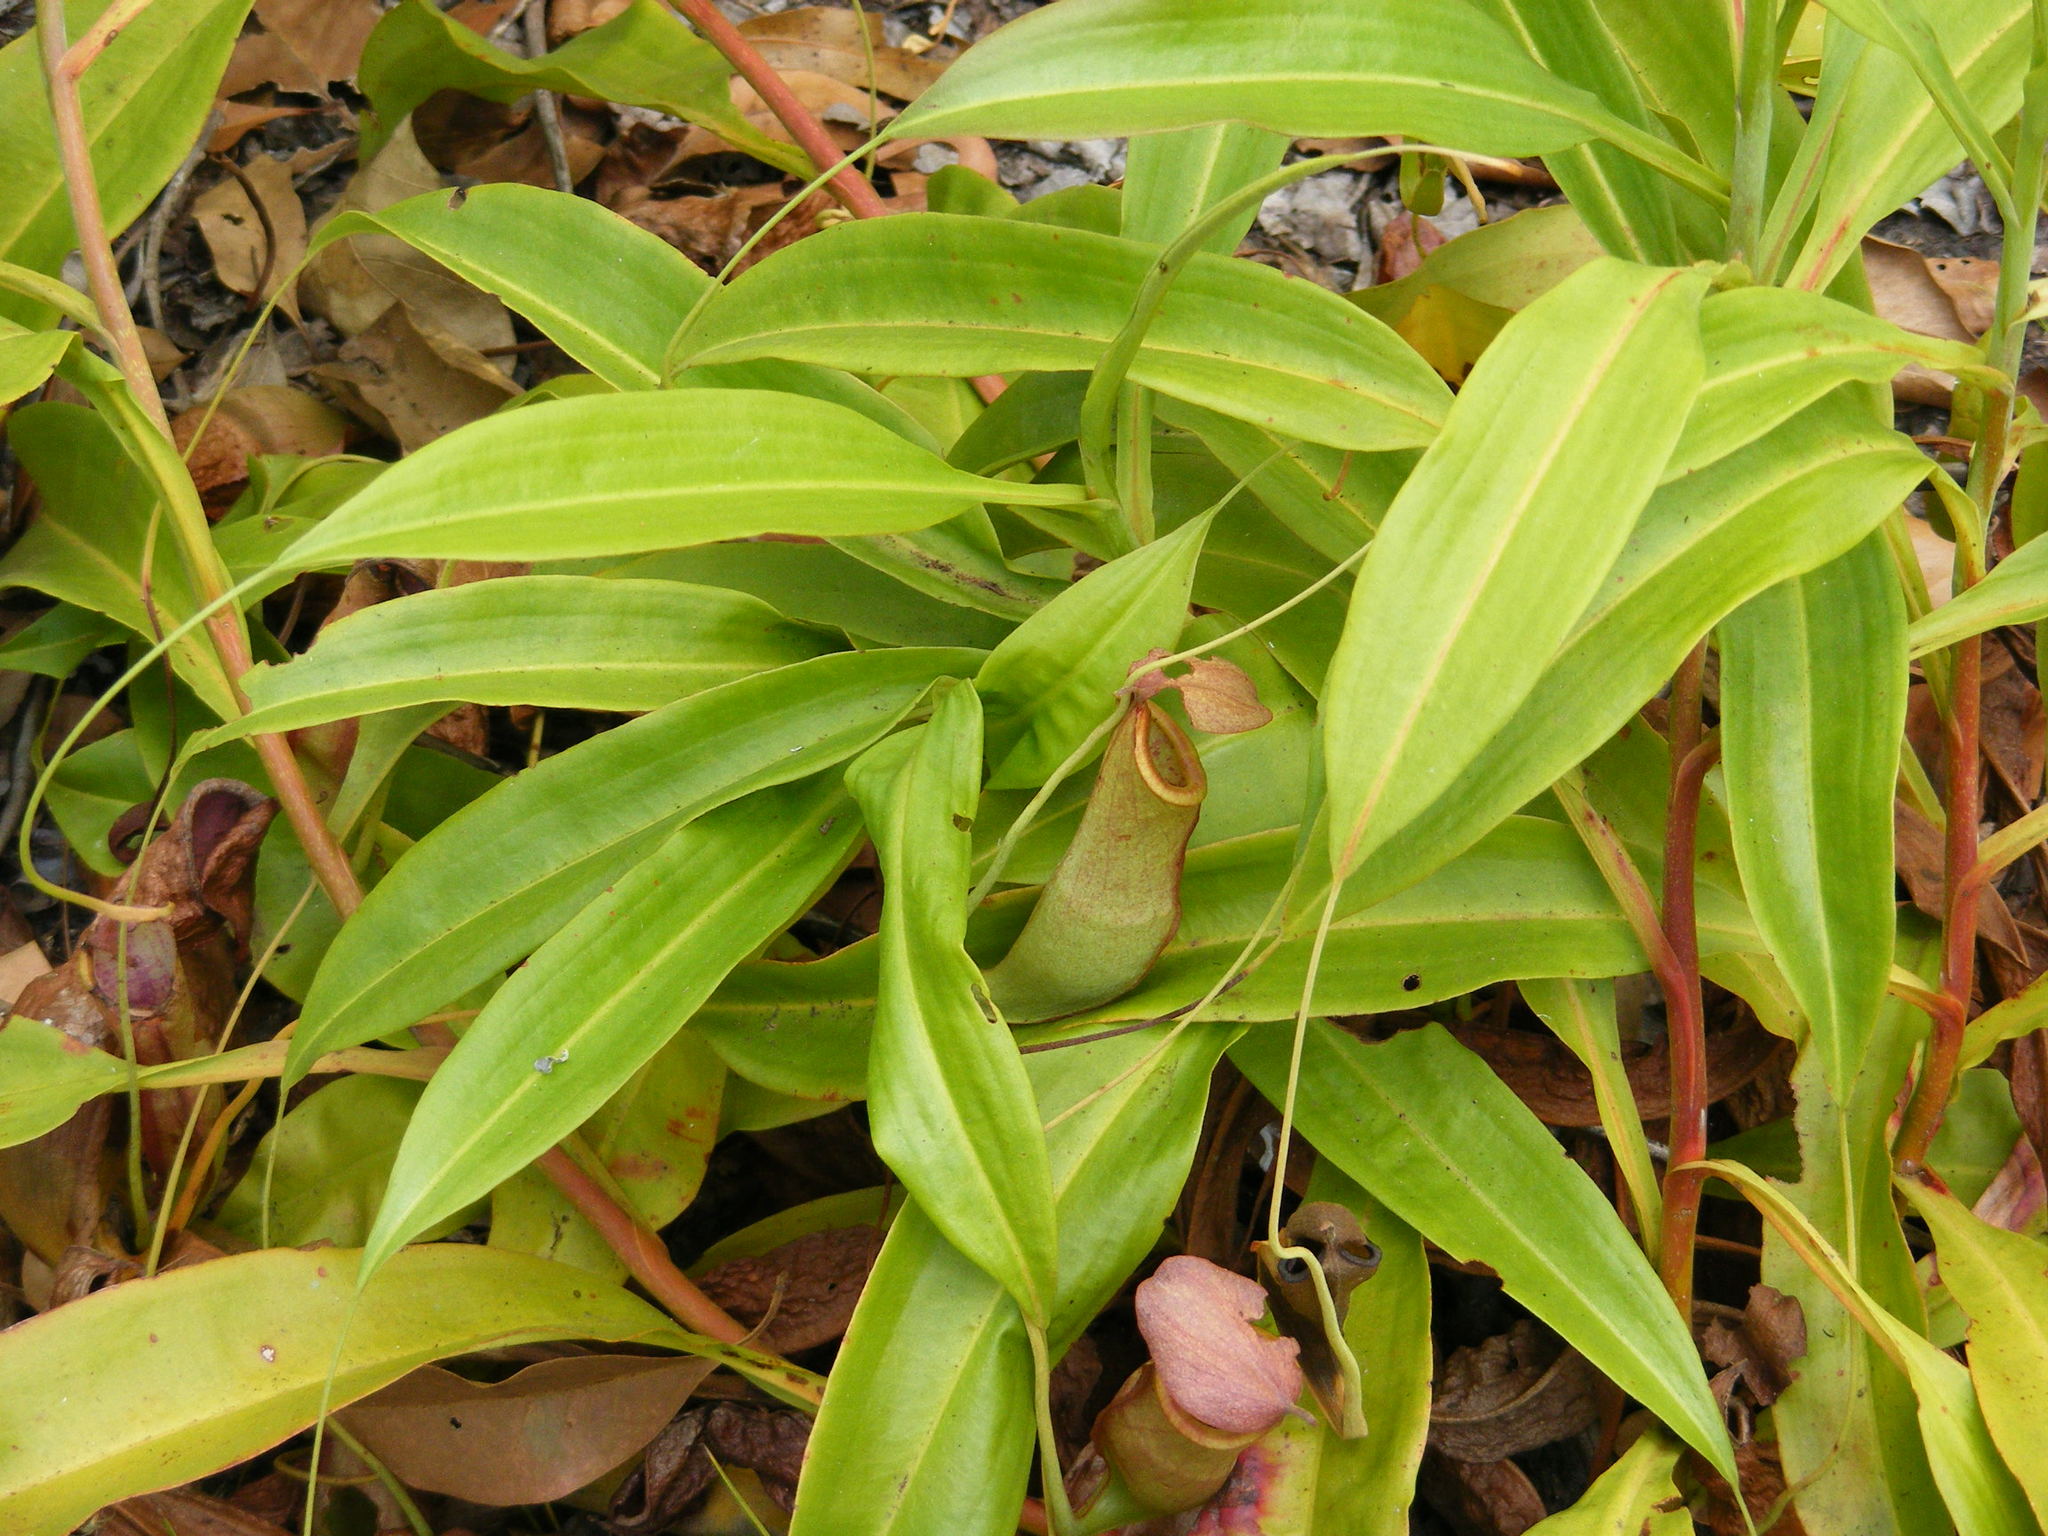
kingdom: Plantae
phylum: Tracheophyta
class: Magnoliopsida
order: Caryophyllales
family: Nepenthaceae
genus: Nepenthes
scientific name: Nepenthes mirabilis
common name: Tropical pitcherplant
